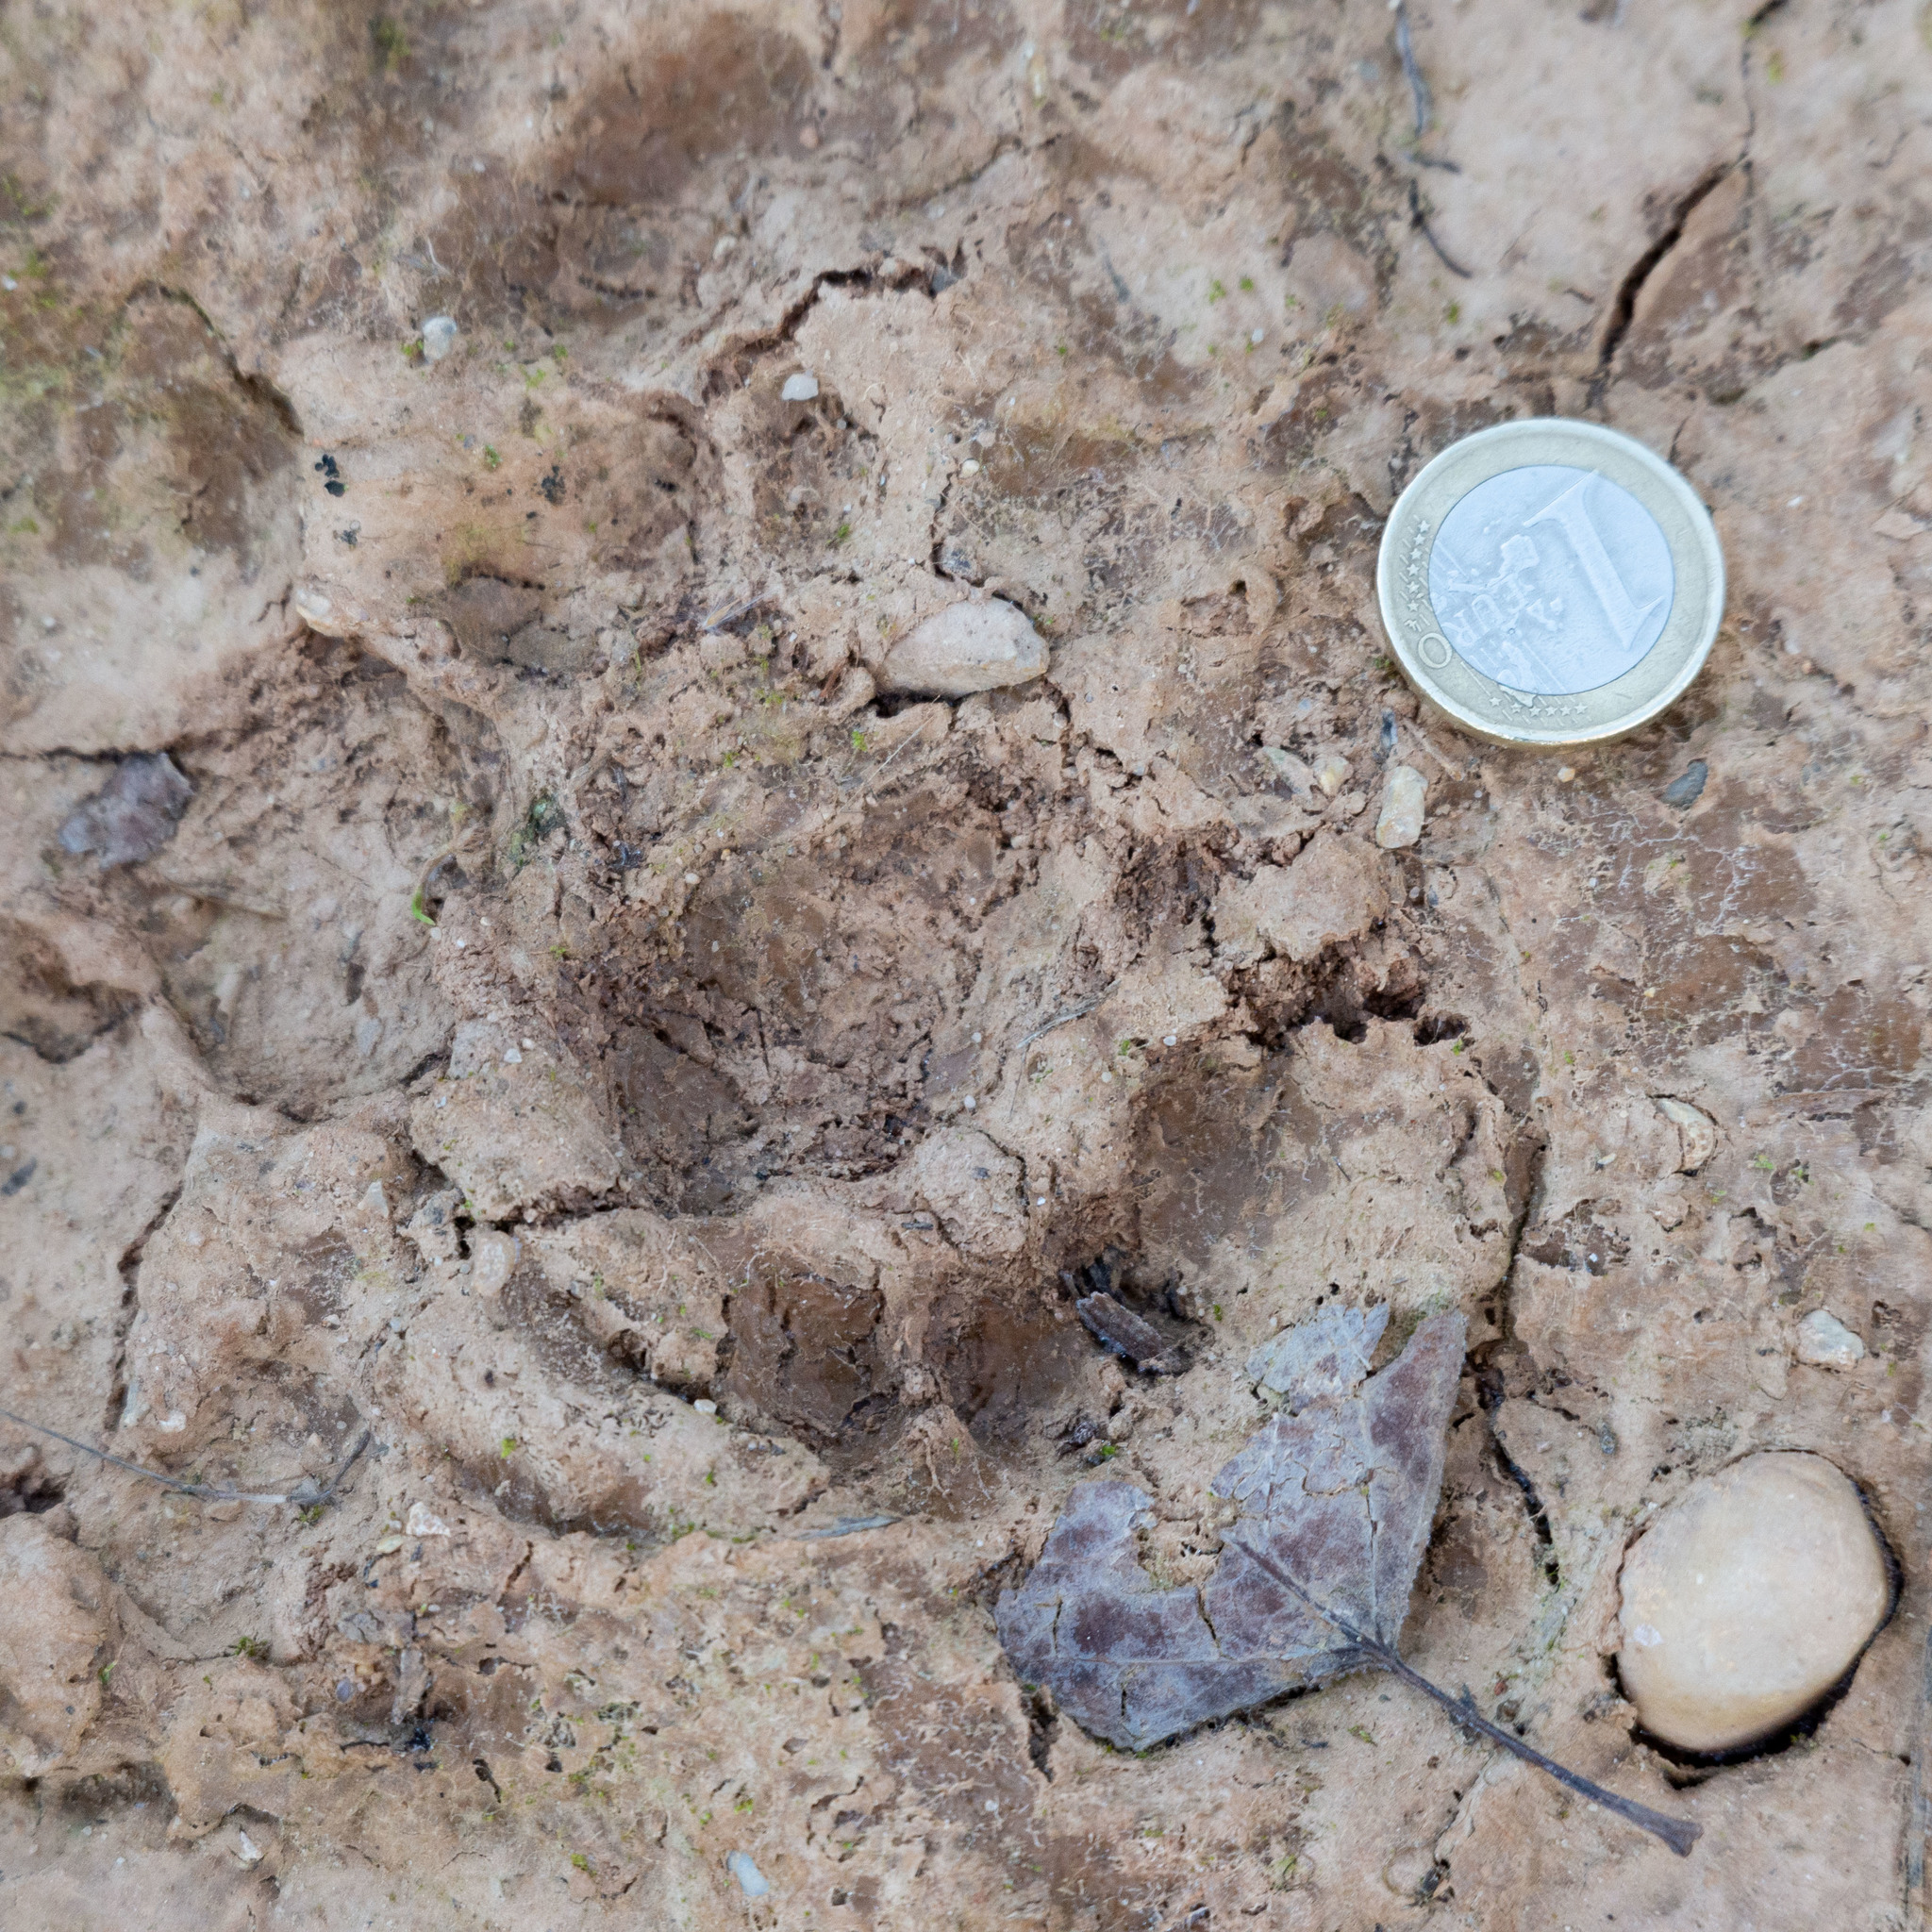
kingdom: Animalia
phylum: Chordata
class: Mammalia
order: Carnivora
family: Mustelidae
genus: Meles
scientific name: Meles meles
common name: Eurasian badger
